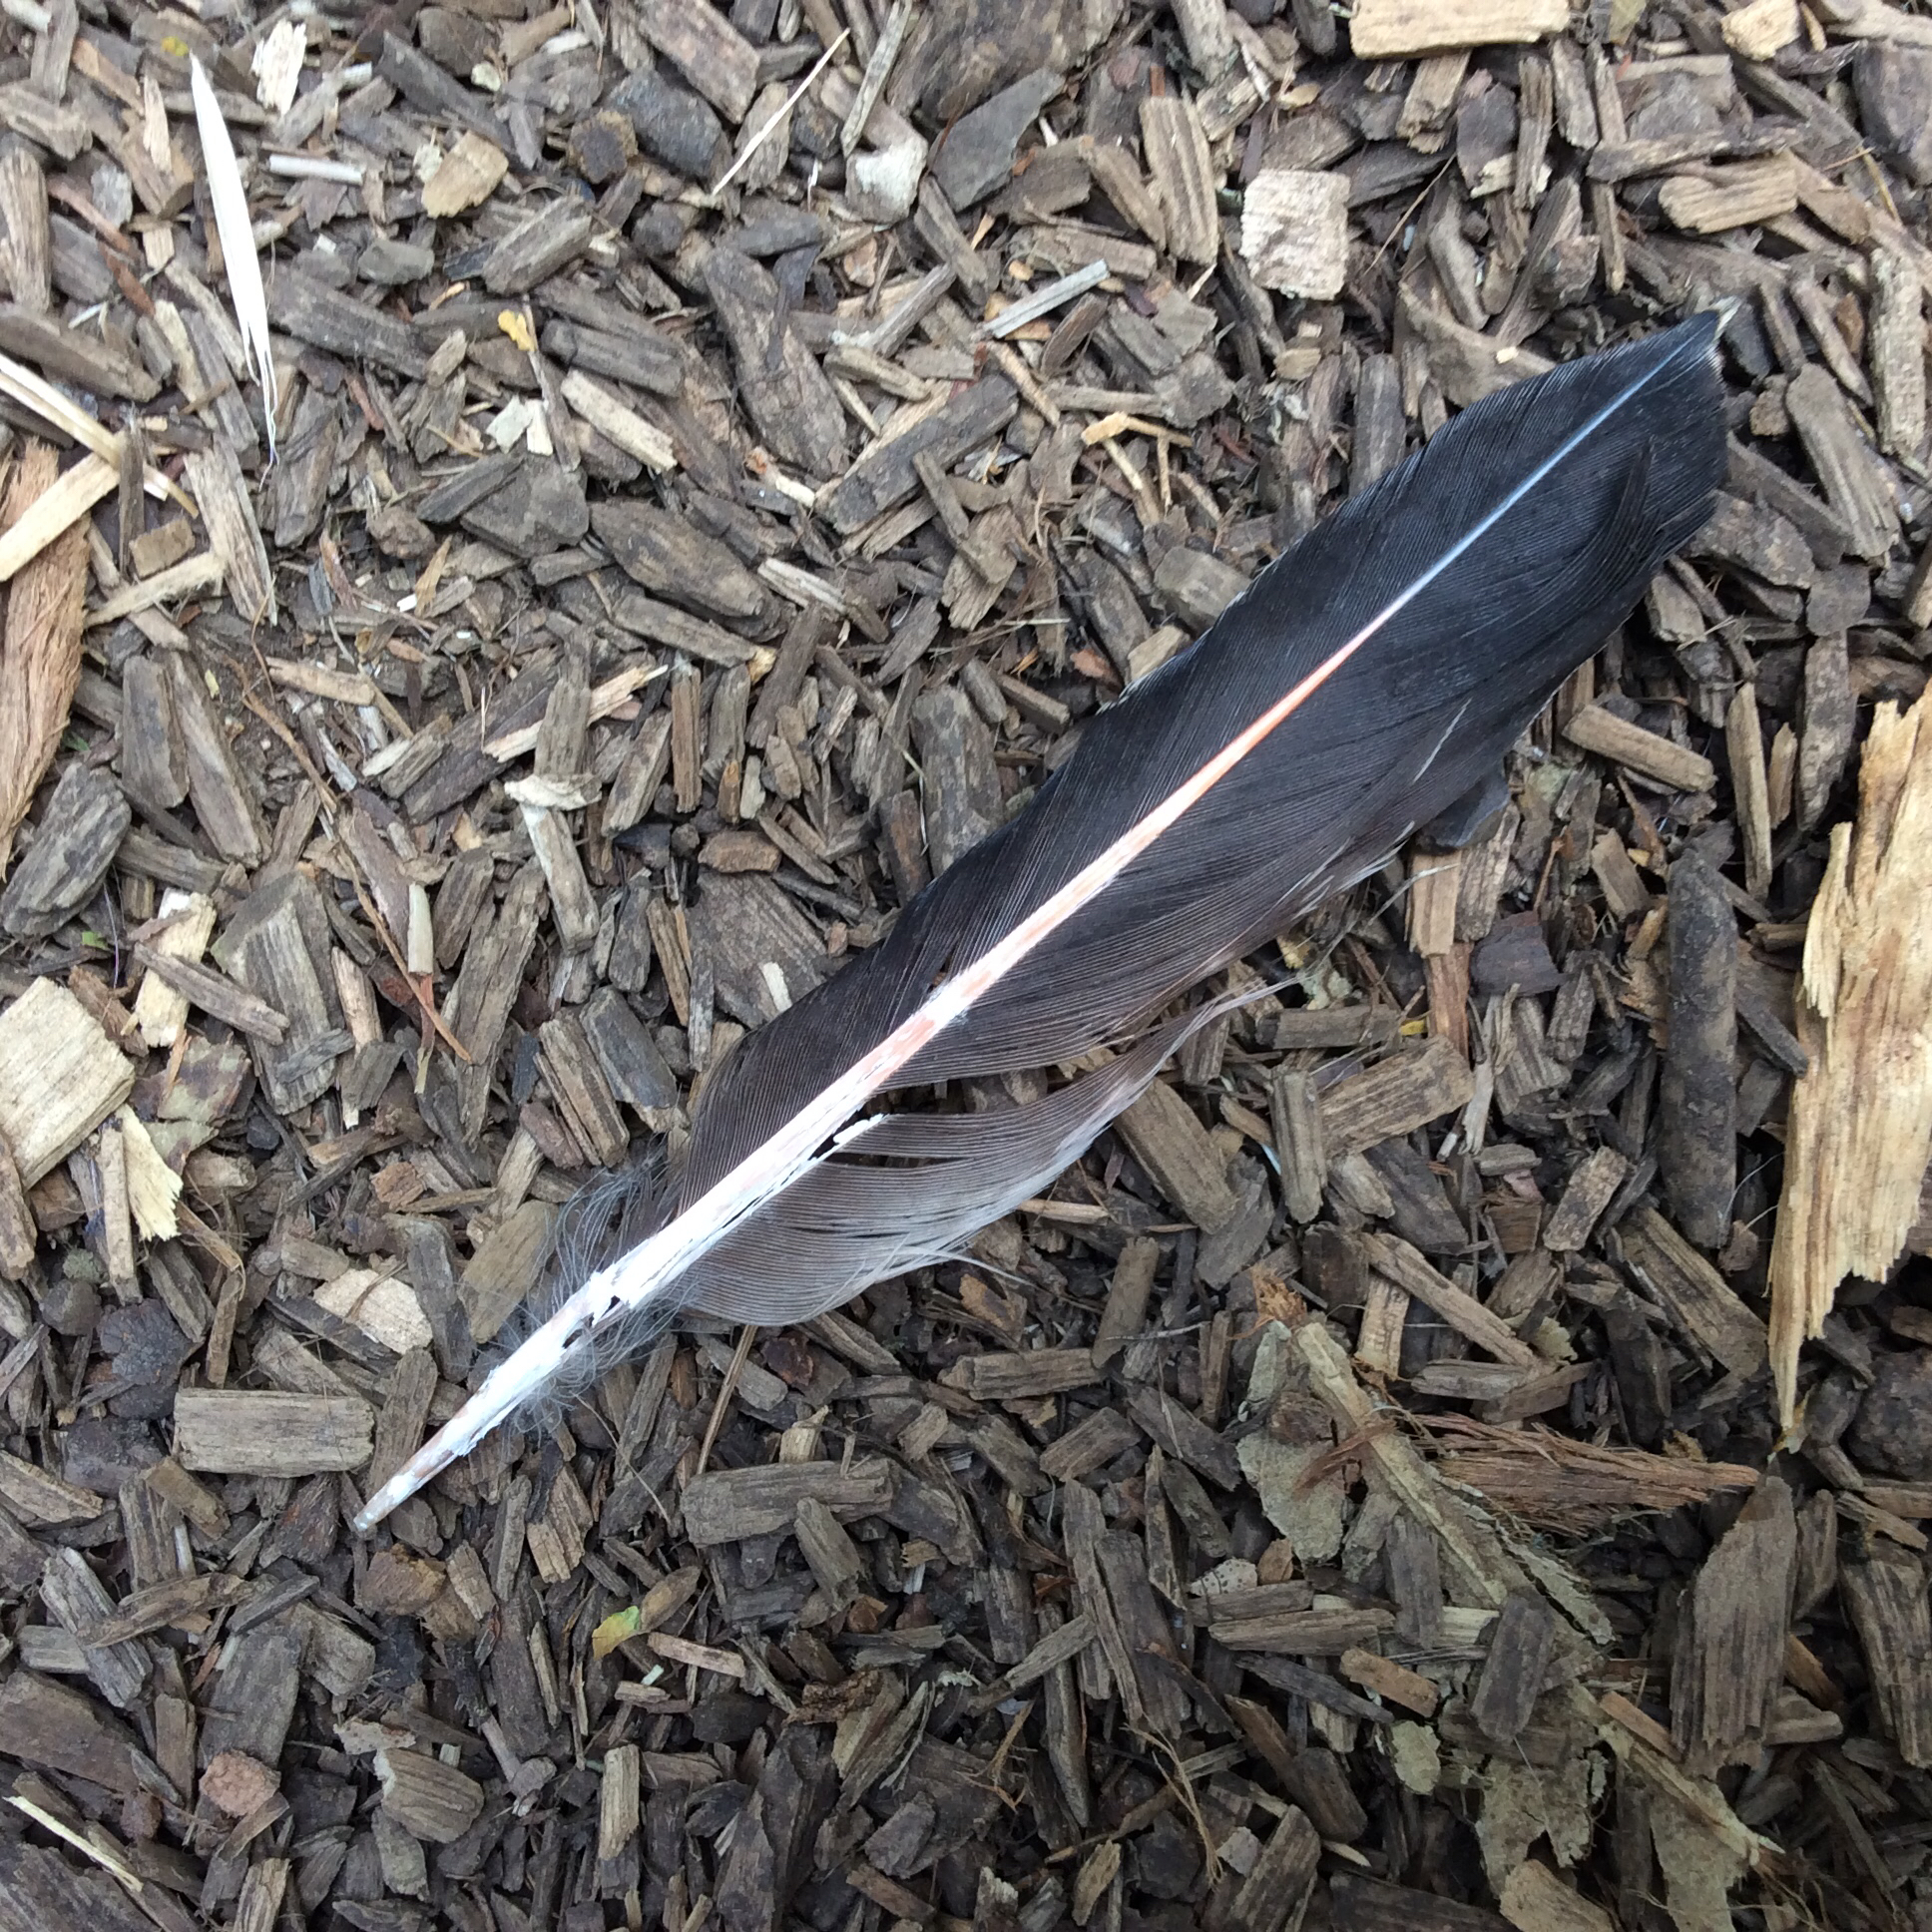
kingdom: Animalia
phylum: Chordata
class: Aves
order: Piciformes
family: Picidae
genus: Colaptes
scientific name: Colaptes auratus
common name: Northern flicker
